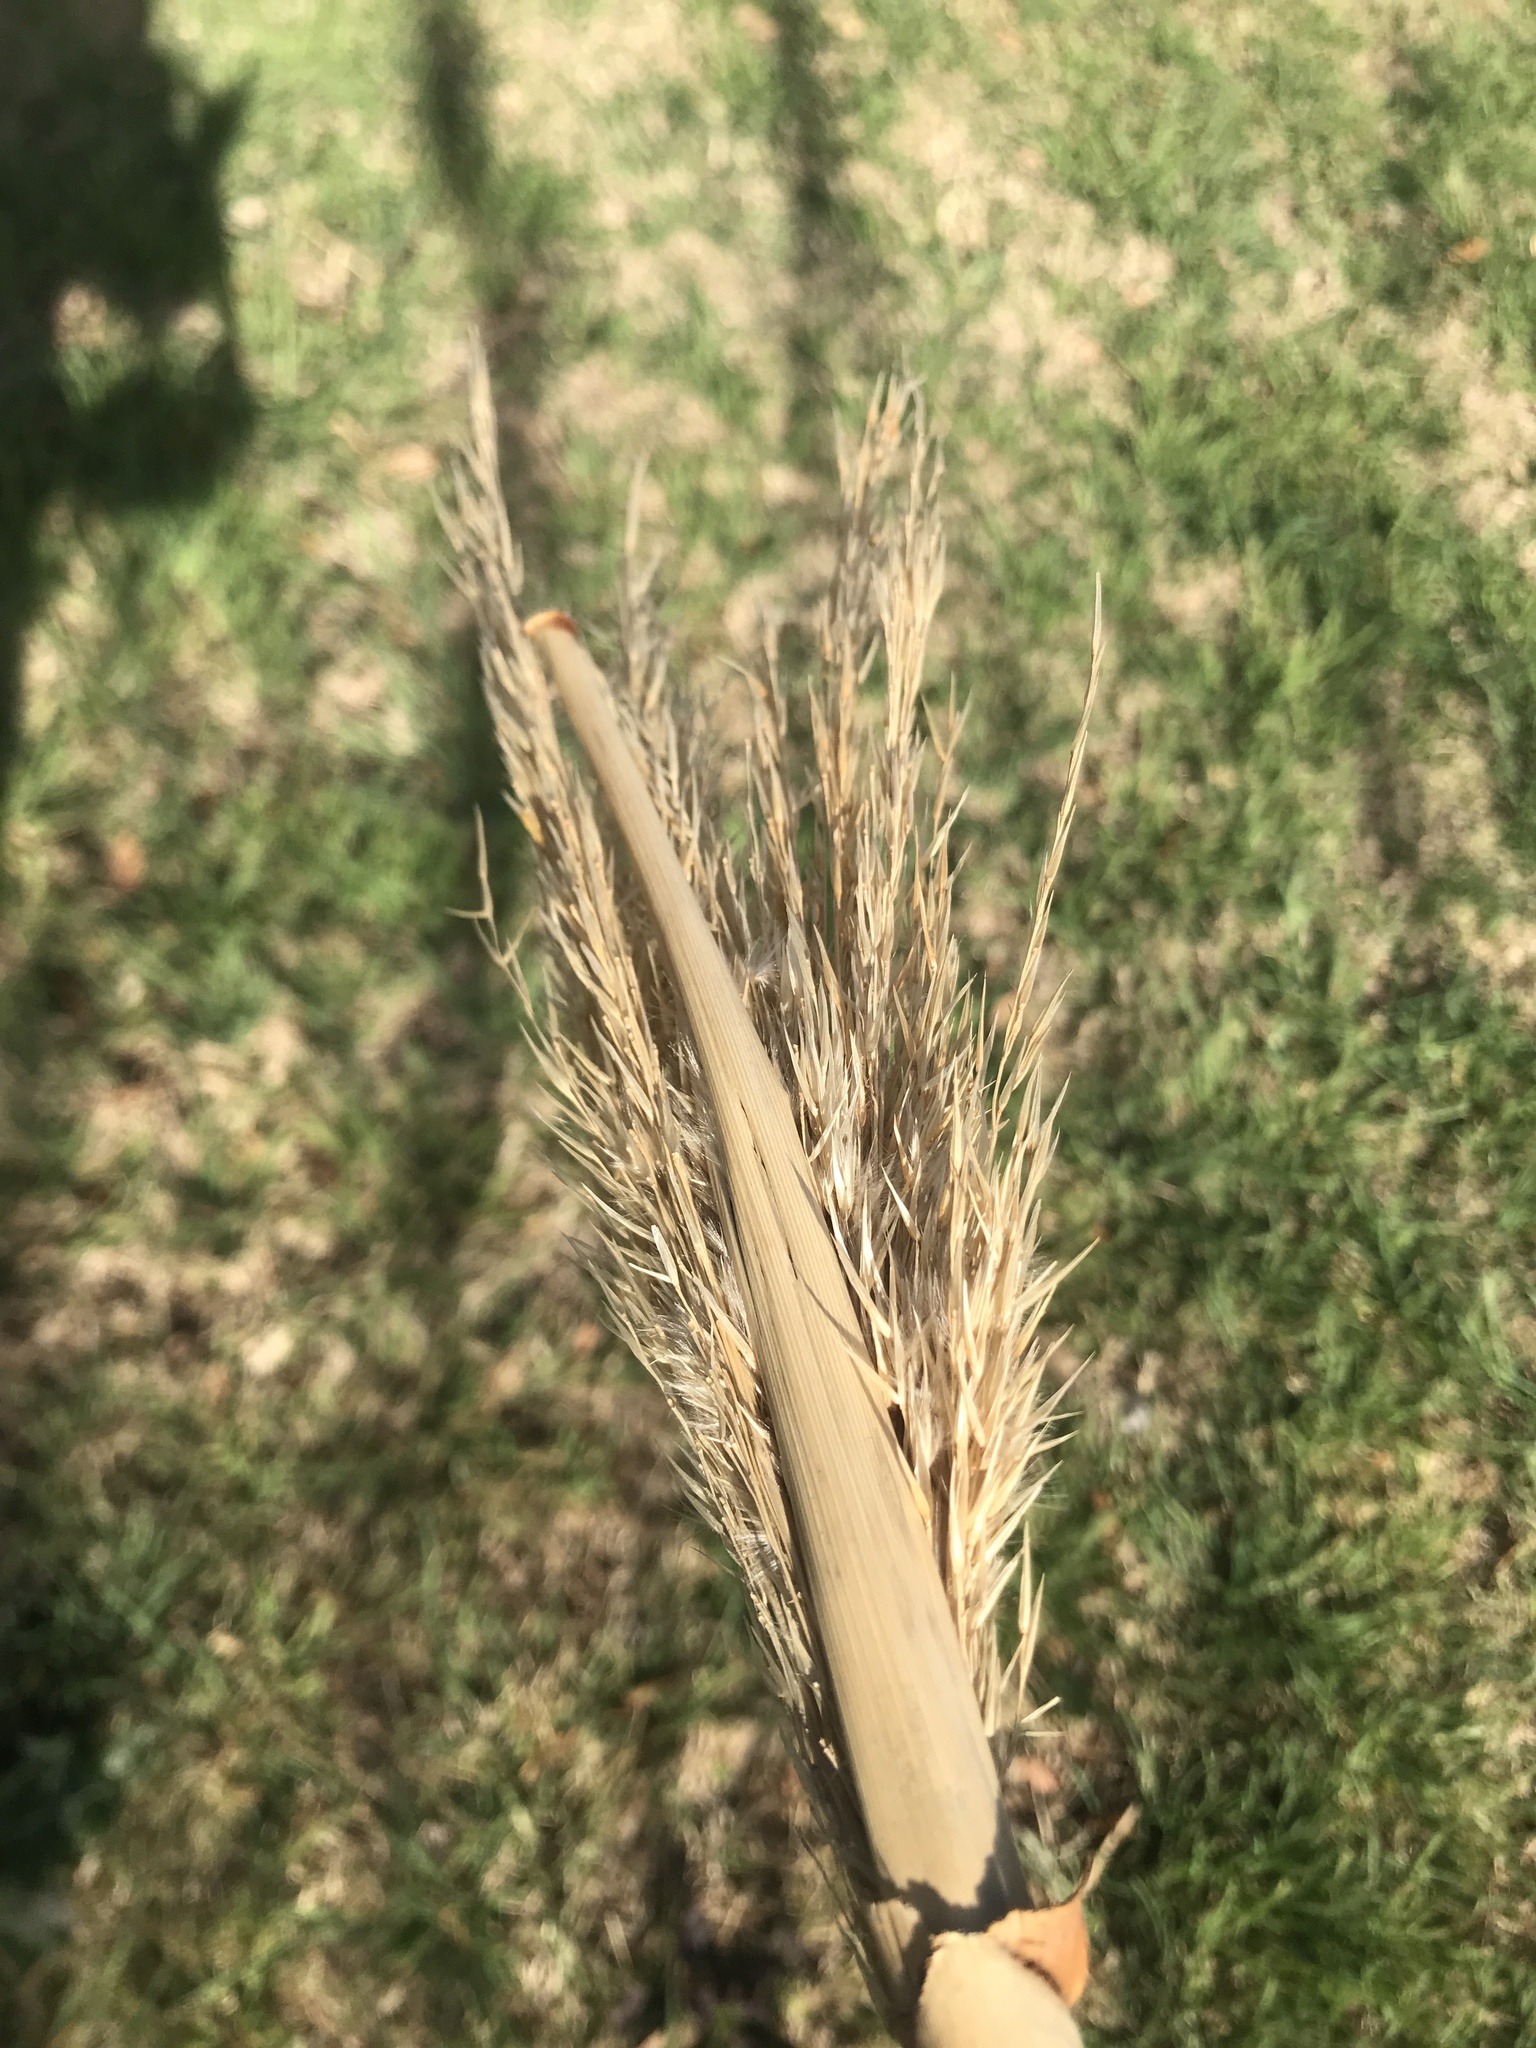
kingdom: Plantae
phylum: Tracheophyta
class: Liliopsida
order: Poales
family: Poaceae
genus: Arundo
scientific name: Arundo donax
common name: Giant reed
